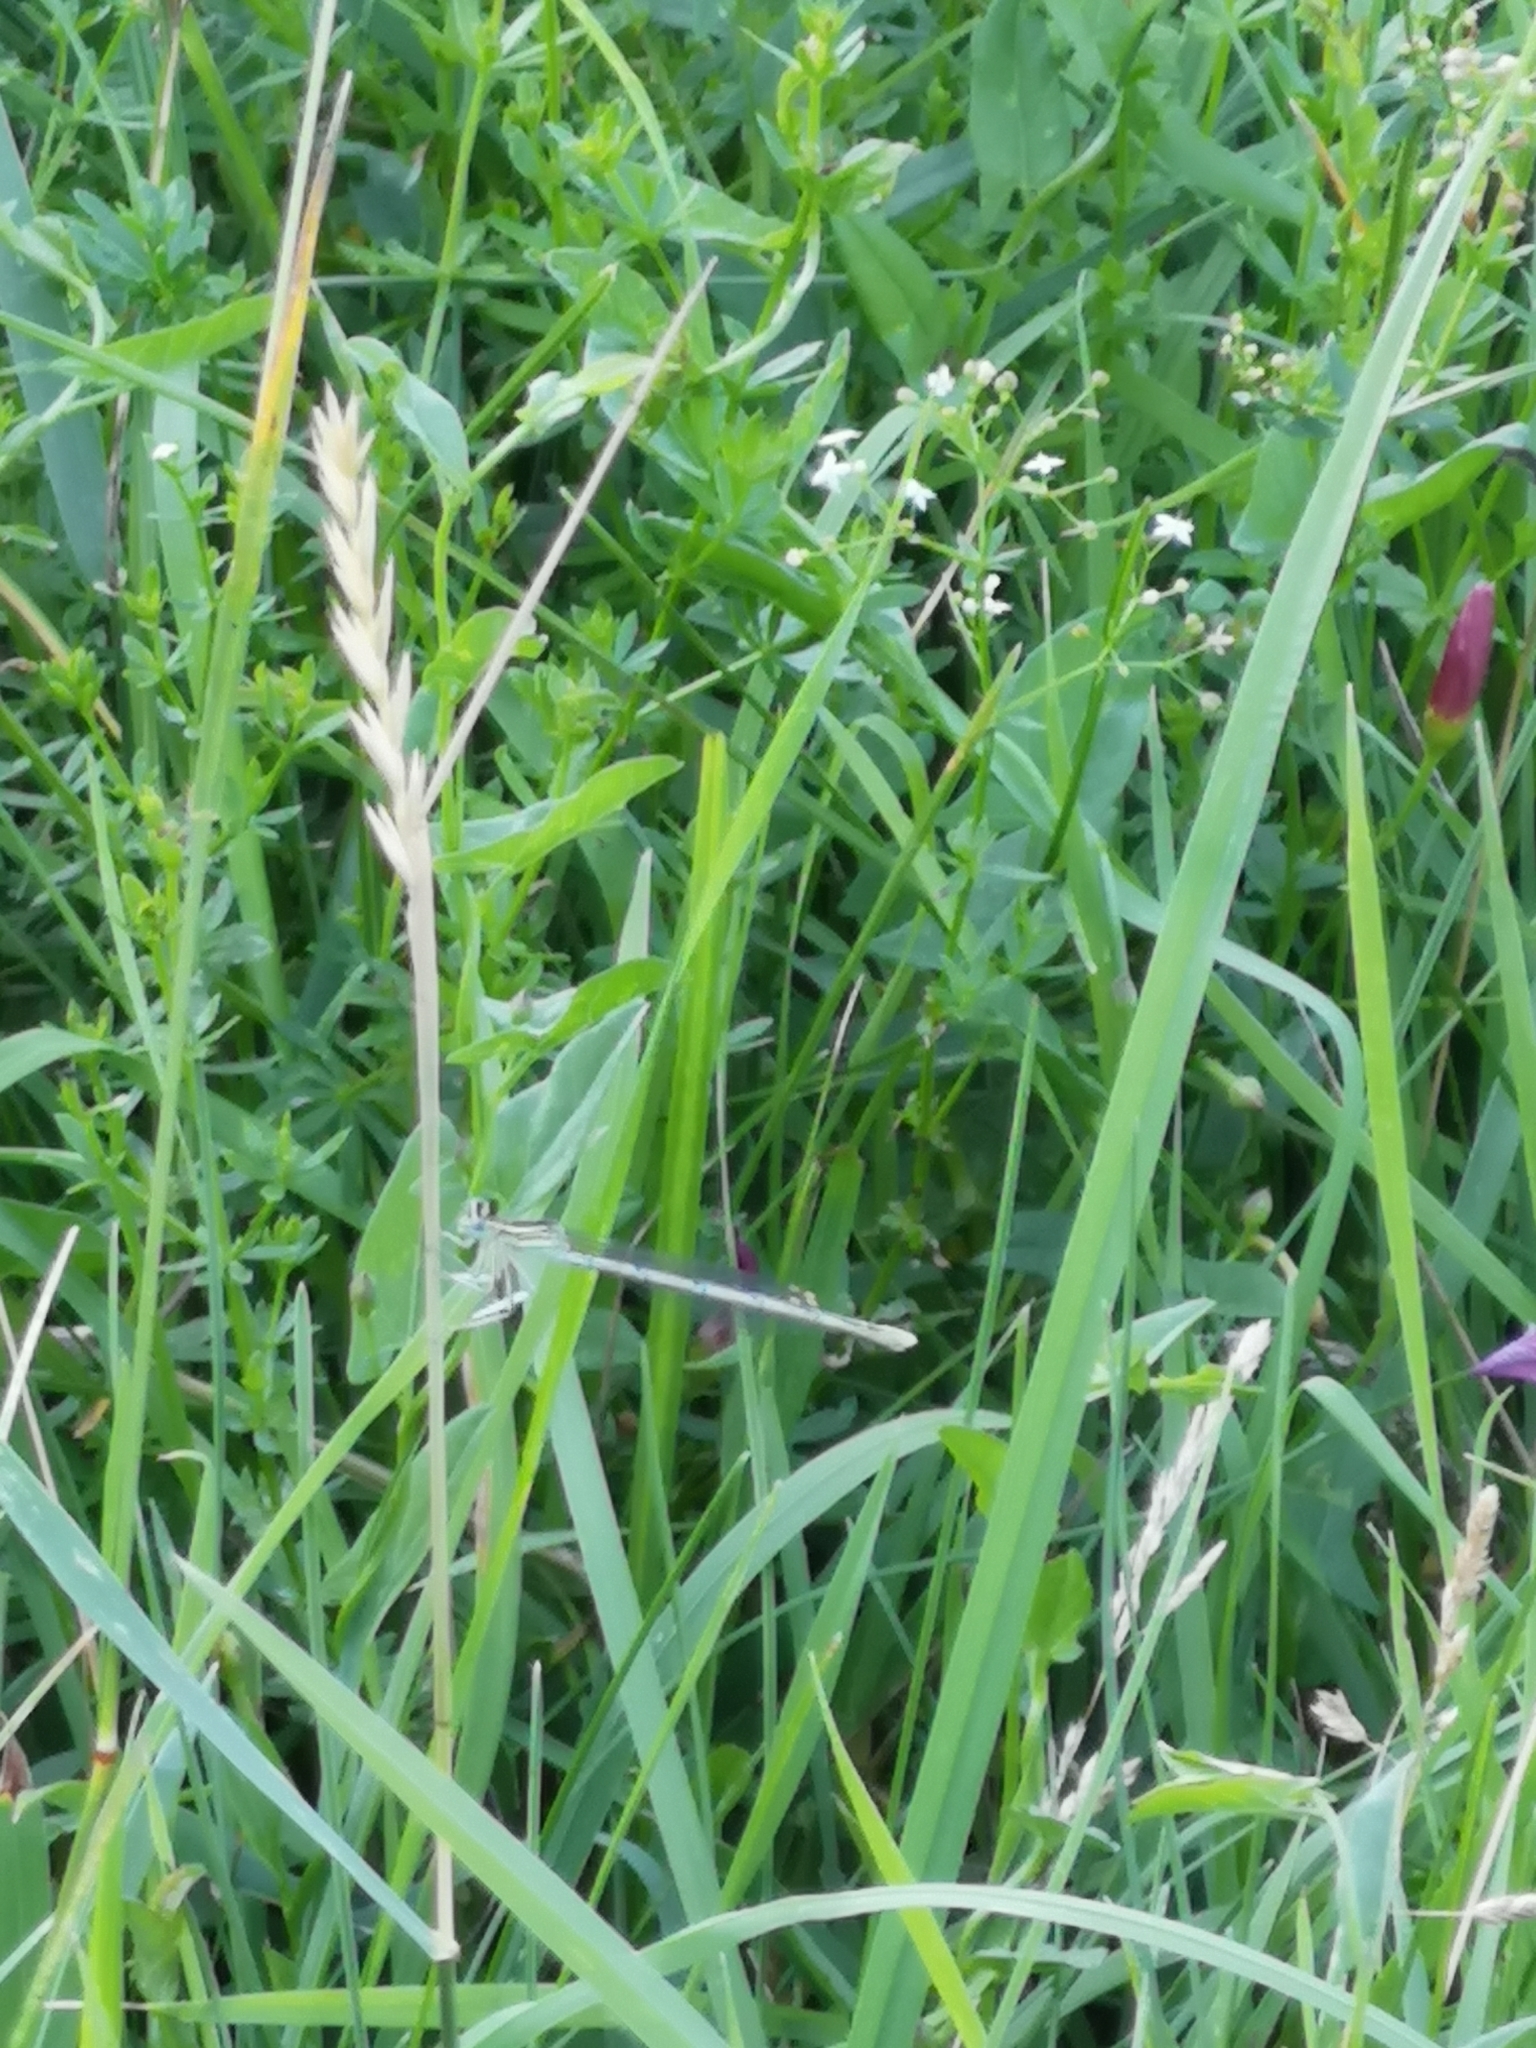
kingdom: Animalia
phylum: Arthropoda
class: Insecta
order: Odonata
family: Platycnemididae
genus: Platycnemis
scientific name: Platycnemis pennipes
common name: White-legged damselfly
